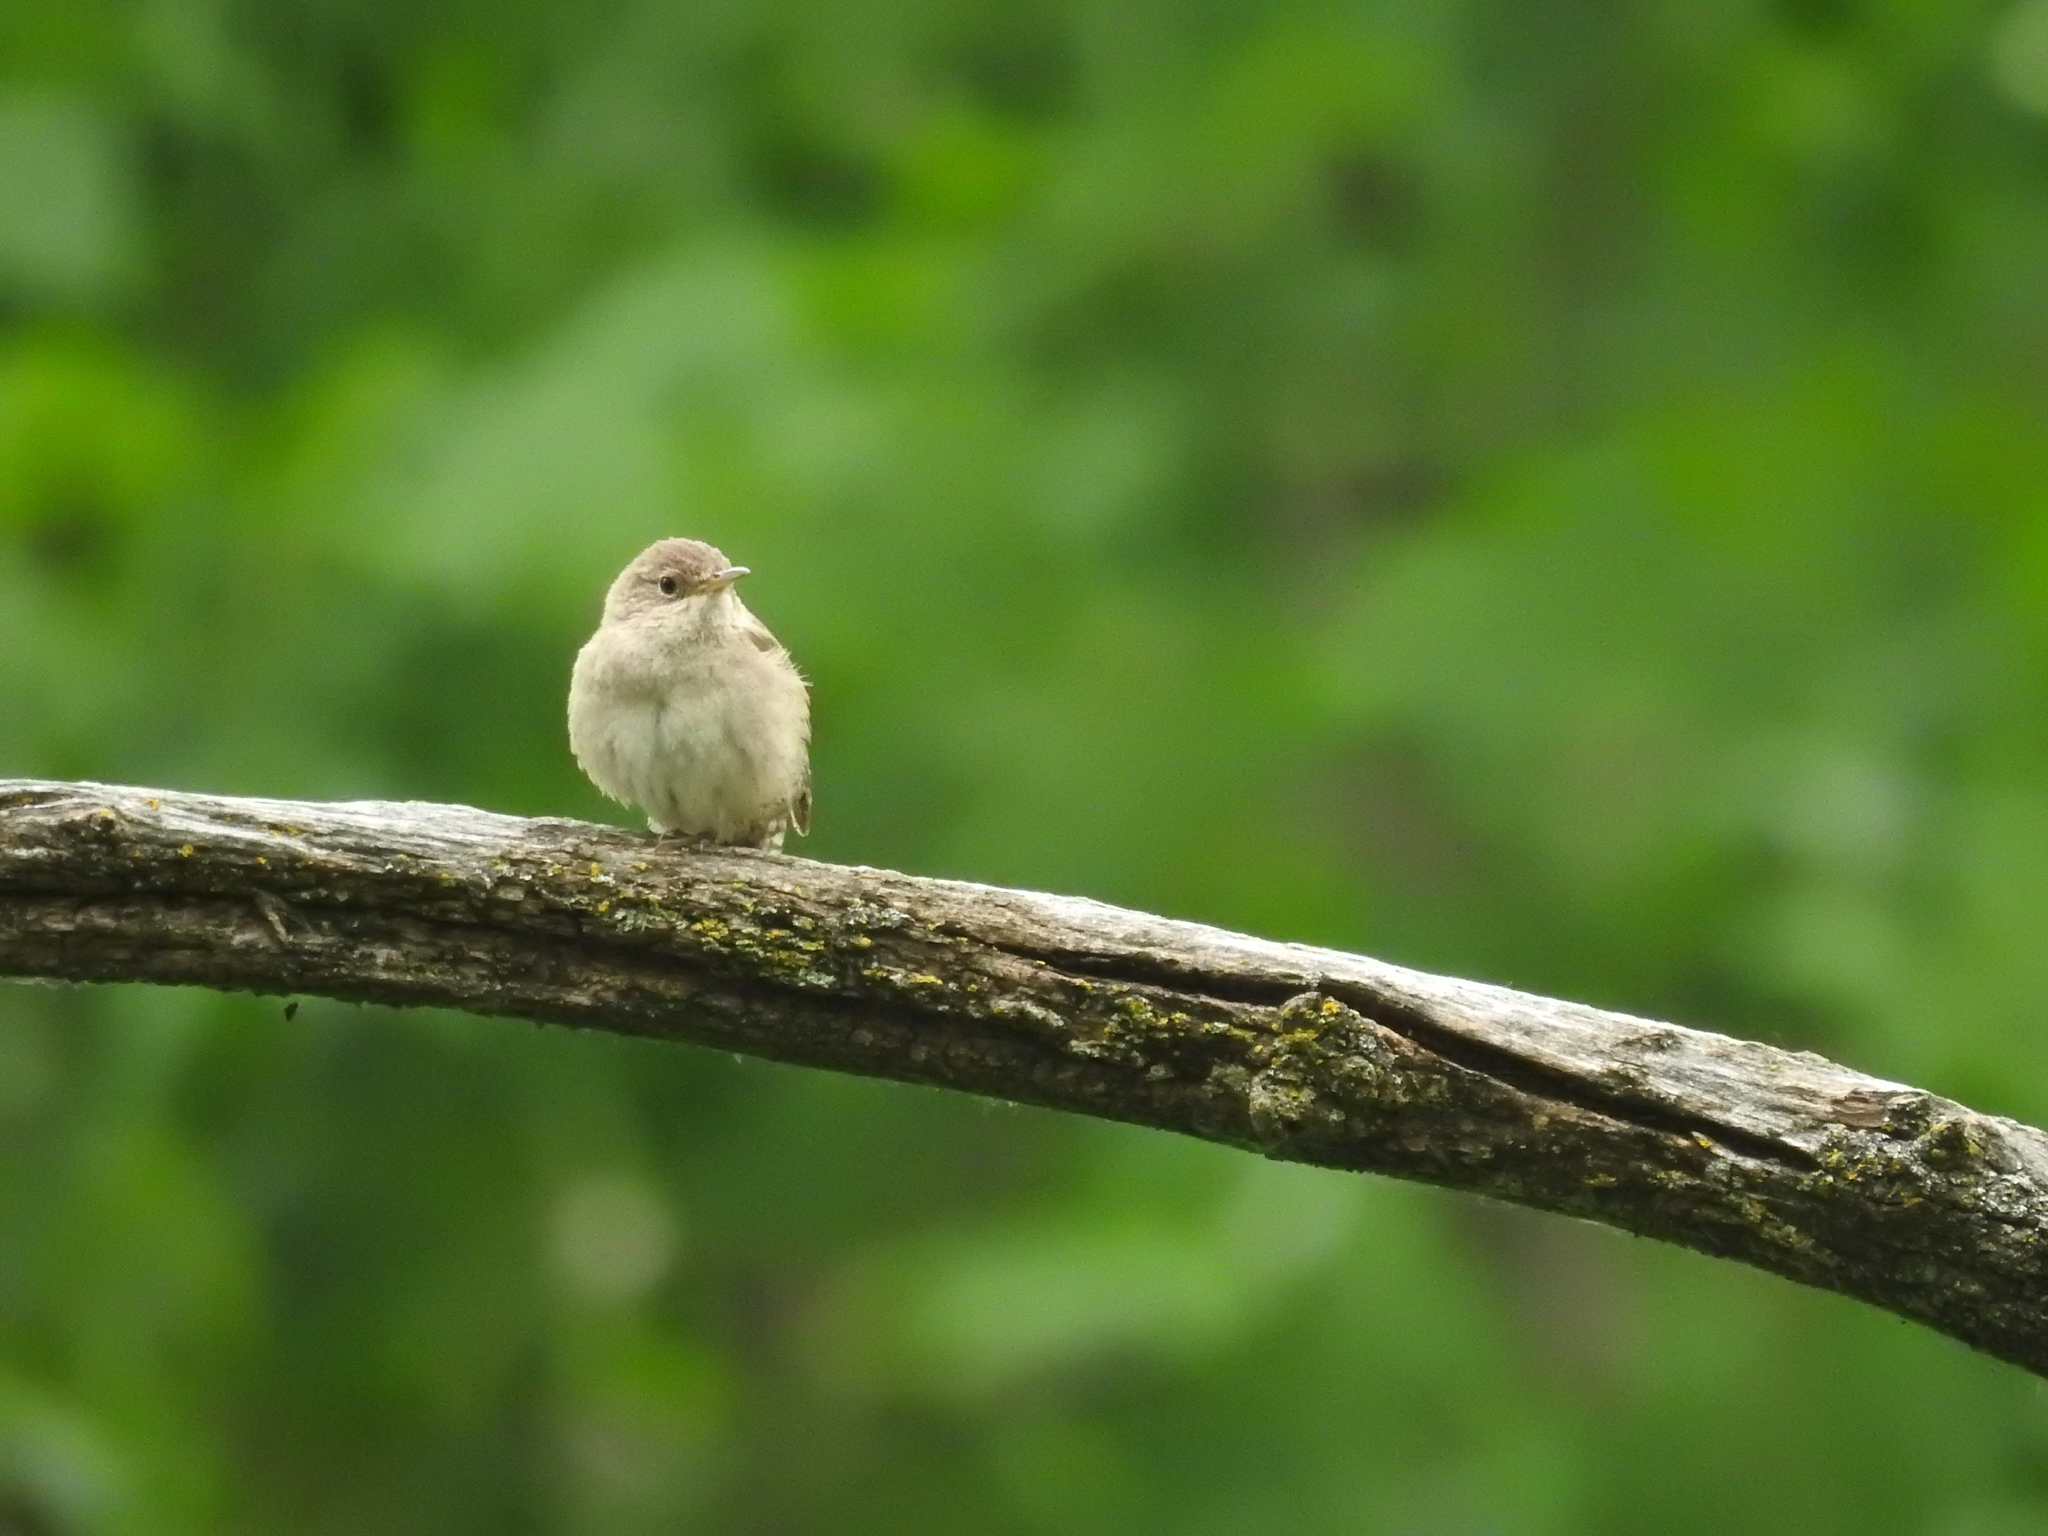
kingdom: Animalia
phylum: Chordata
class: Aves
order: Passeriformes
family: Troglodytidae
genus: Troglodytes
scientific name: Troglodytes aedon
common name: House wren
